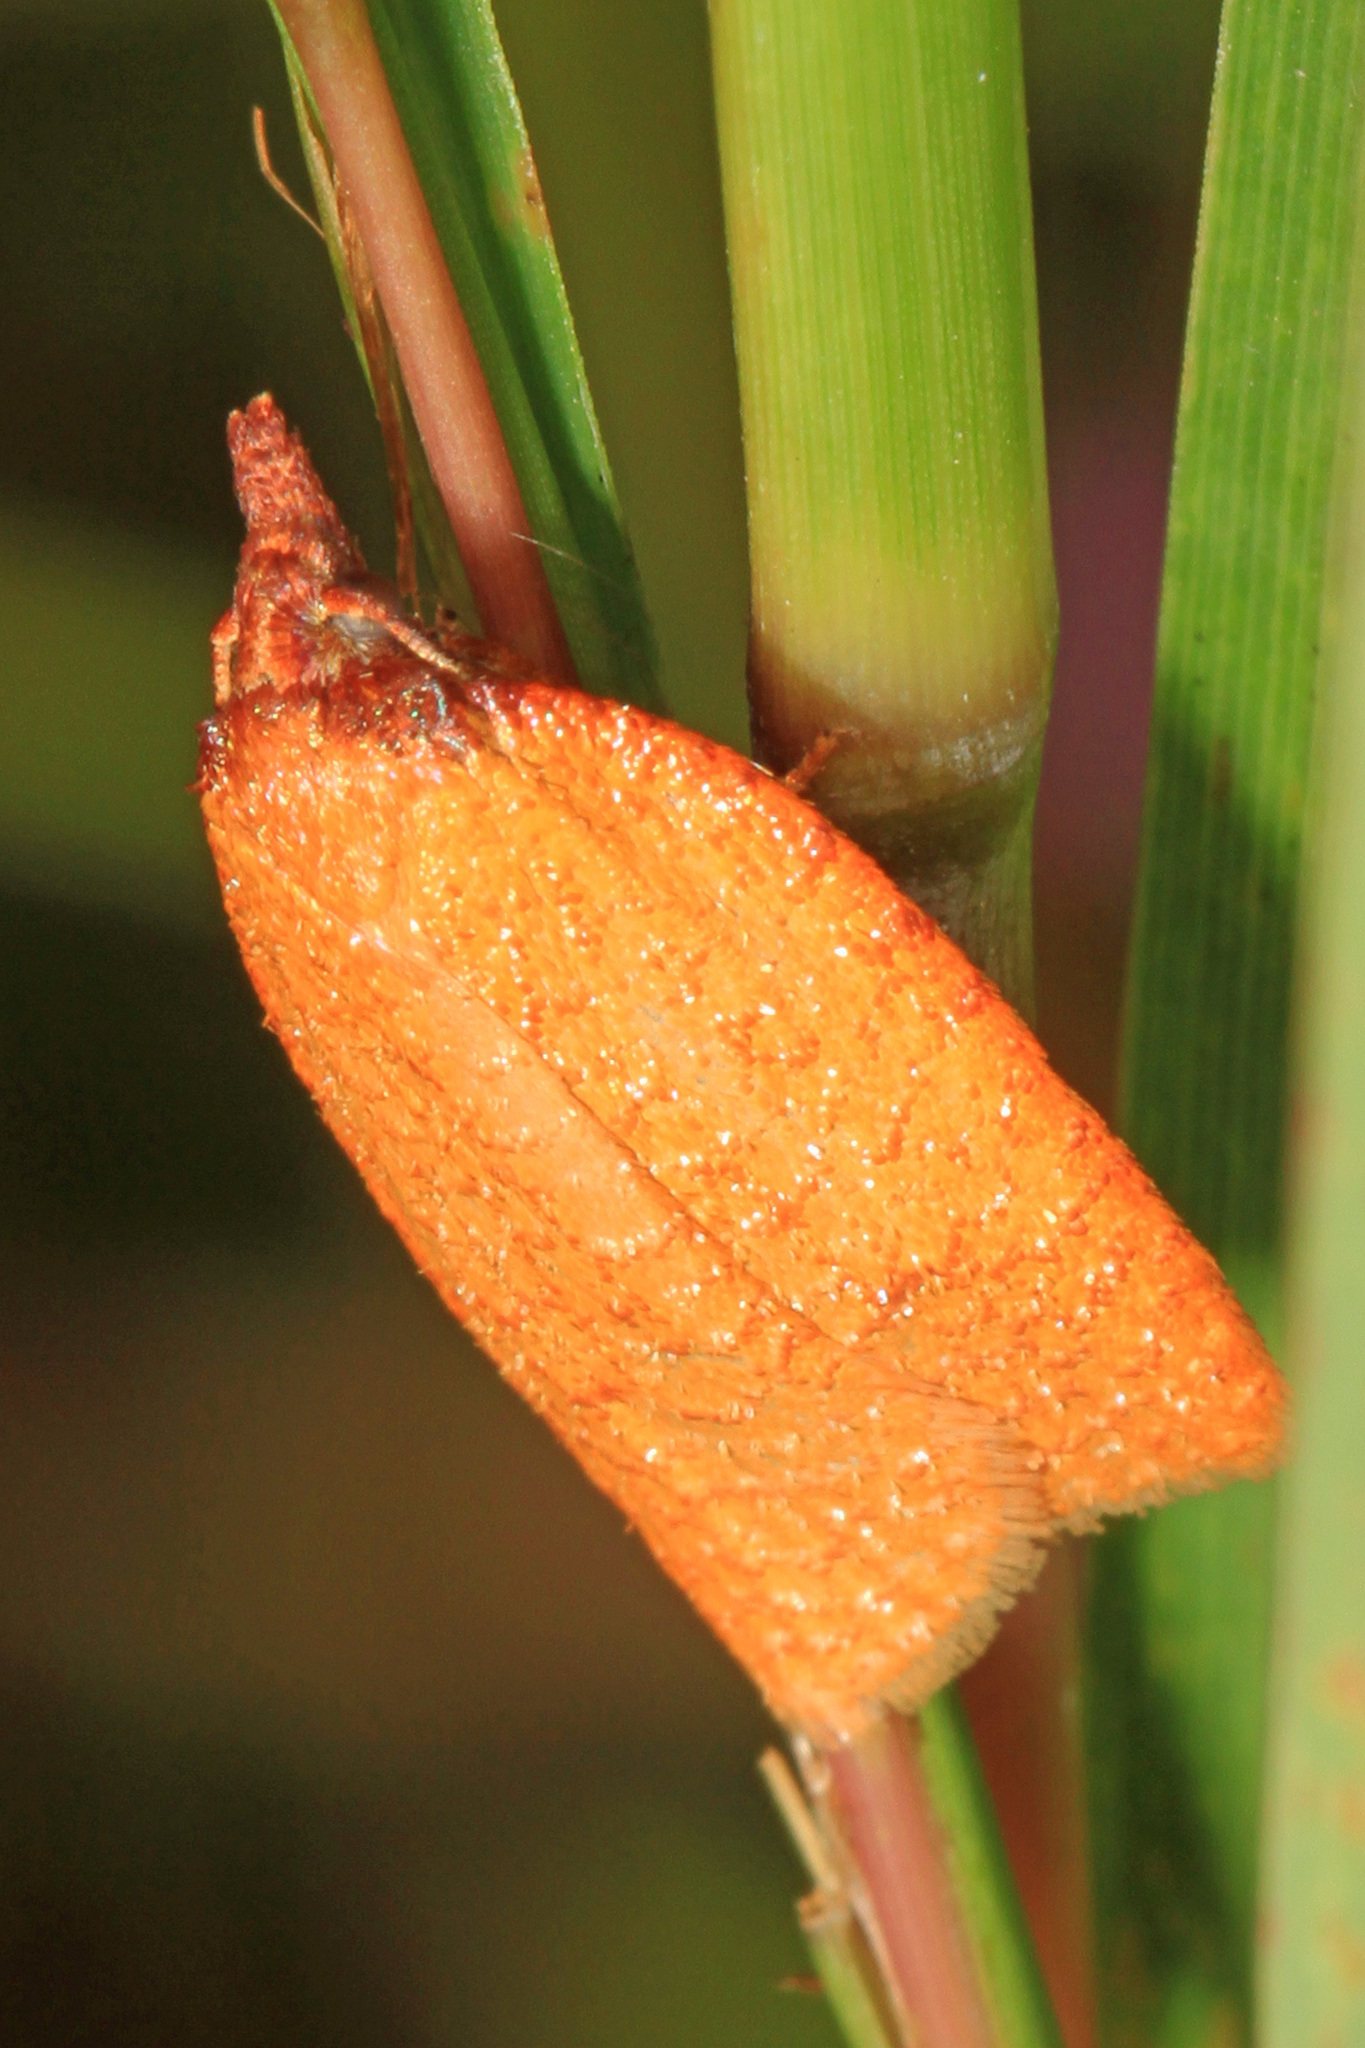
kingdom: Animalia
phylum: Arthropoda
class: Insecta
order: Lepidoptera
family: Tortricidae
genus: Sparganothis
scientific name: Sparganothis distincta
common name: Distinct sparganothis moth
